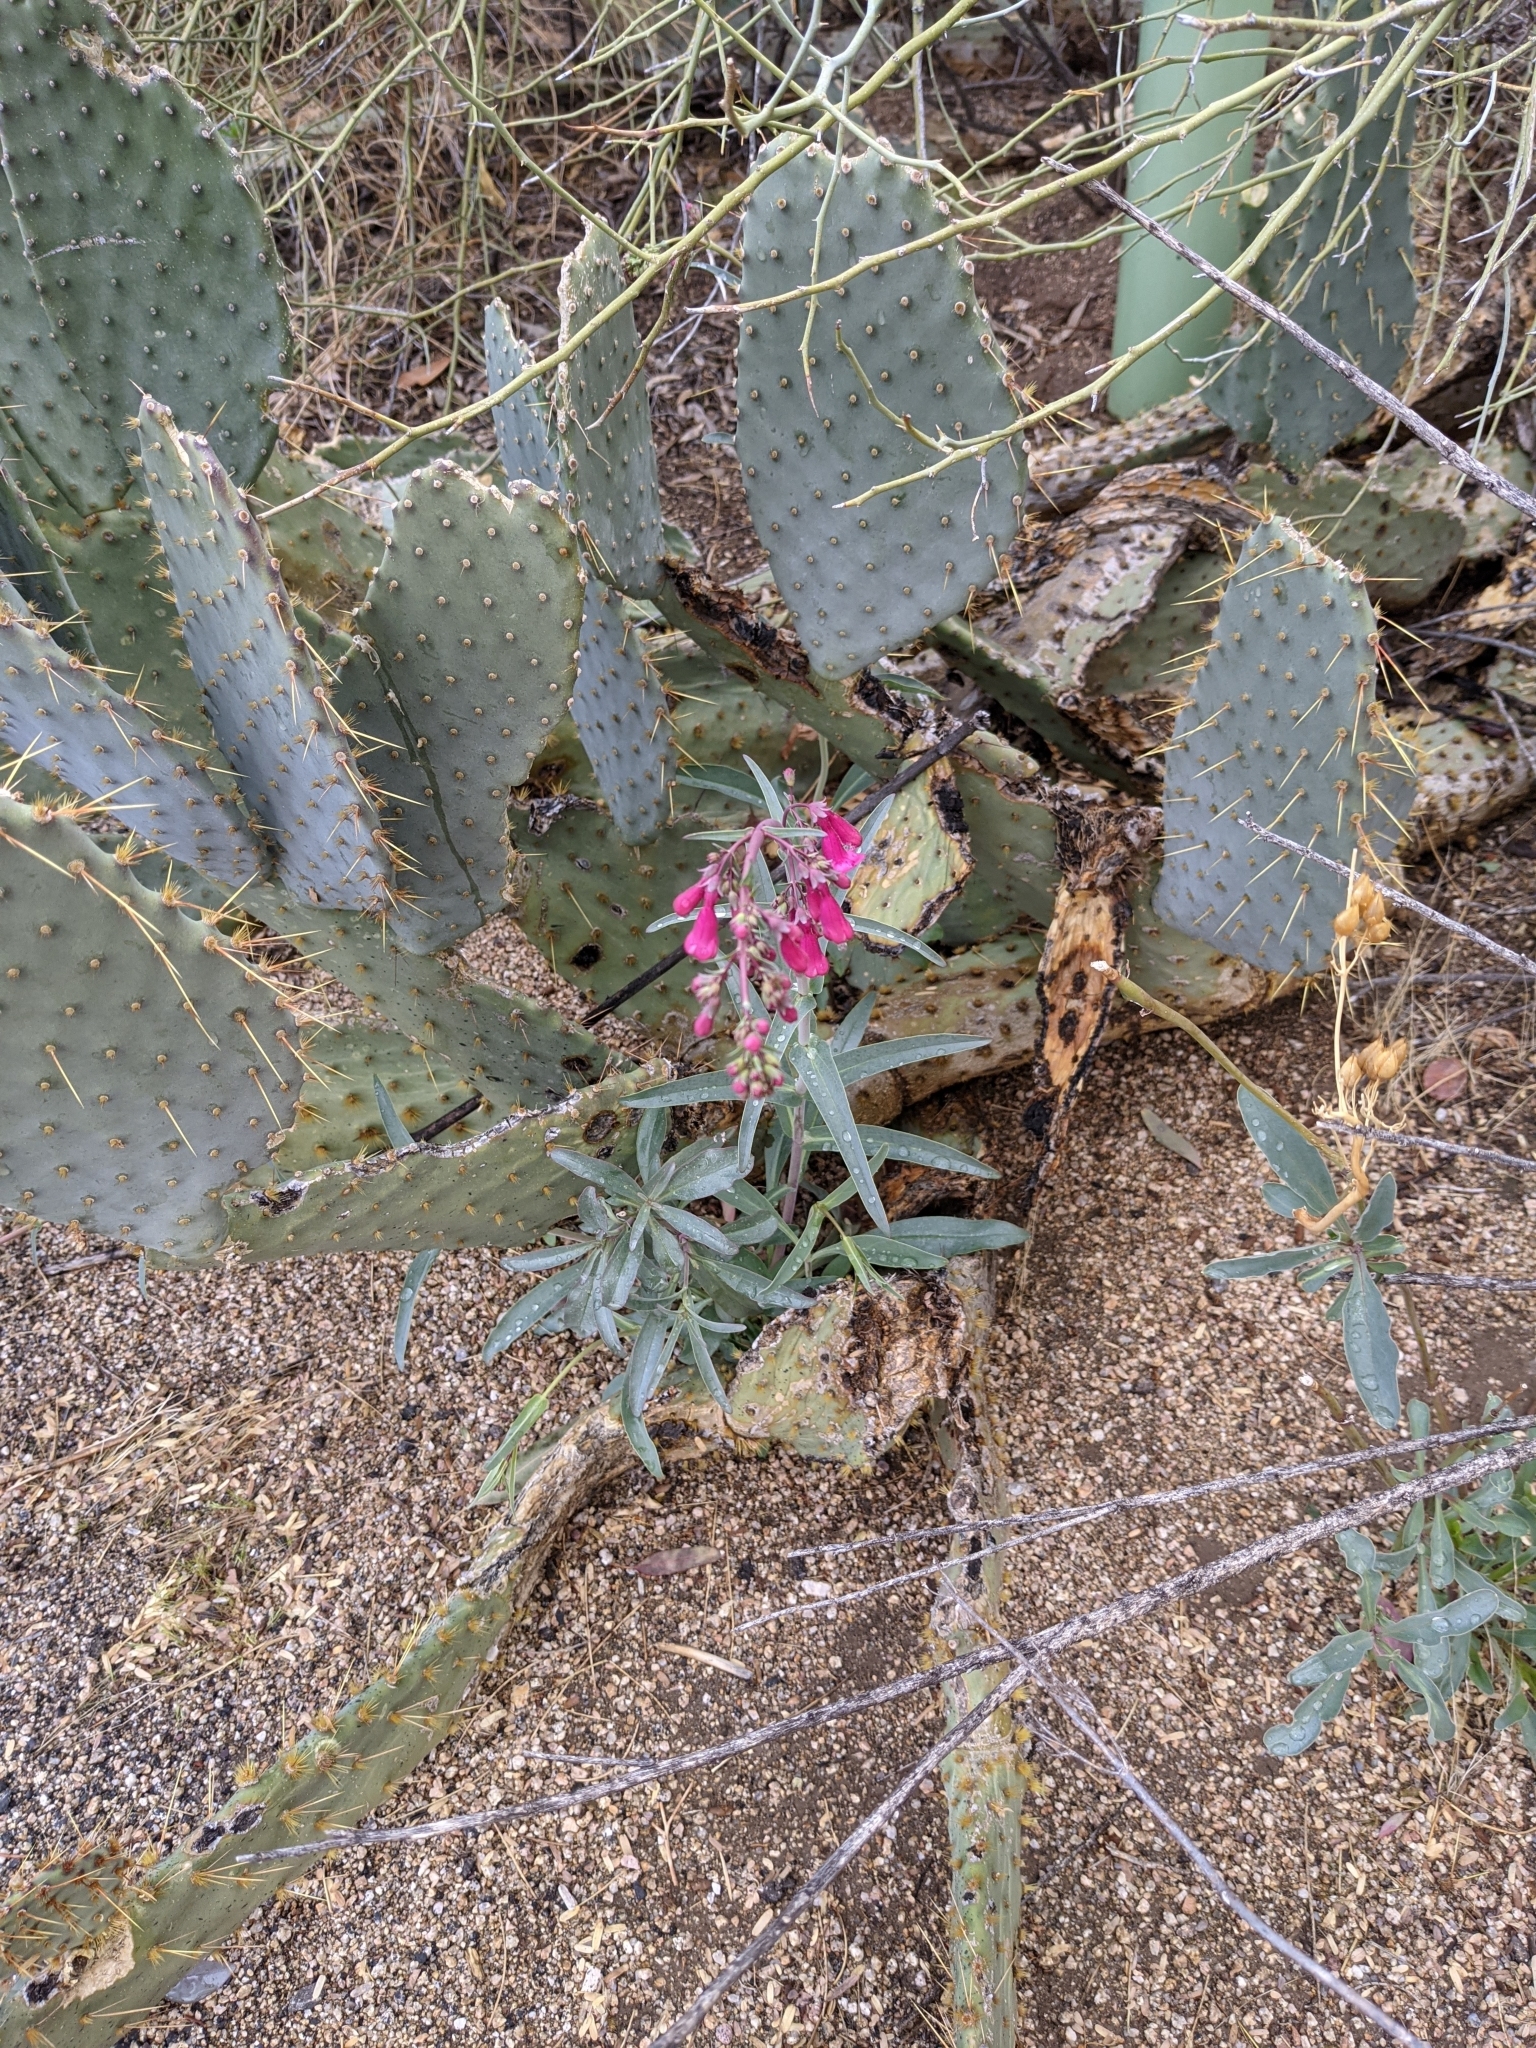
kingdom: Plantae
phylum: Tracheophyta
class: Magnoliopsida
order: Lamiales
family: Plantaginaceae
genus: Penstemon
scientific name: Penstemon parryi
